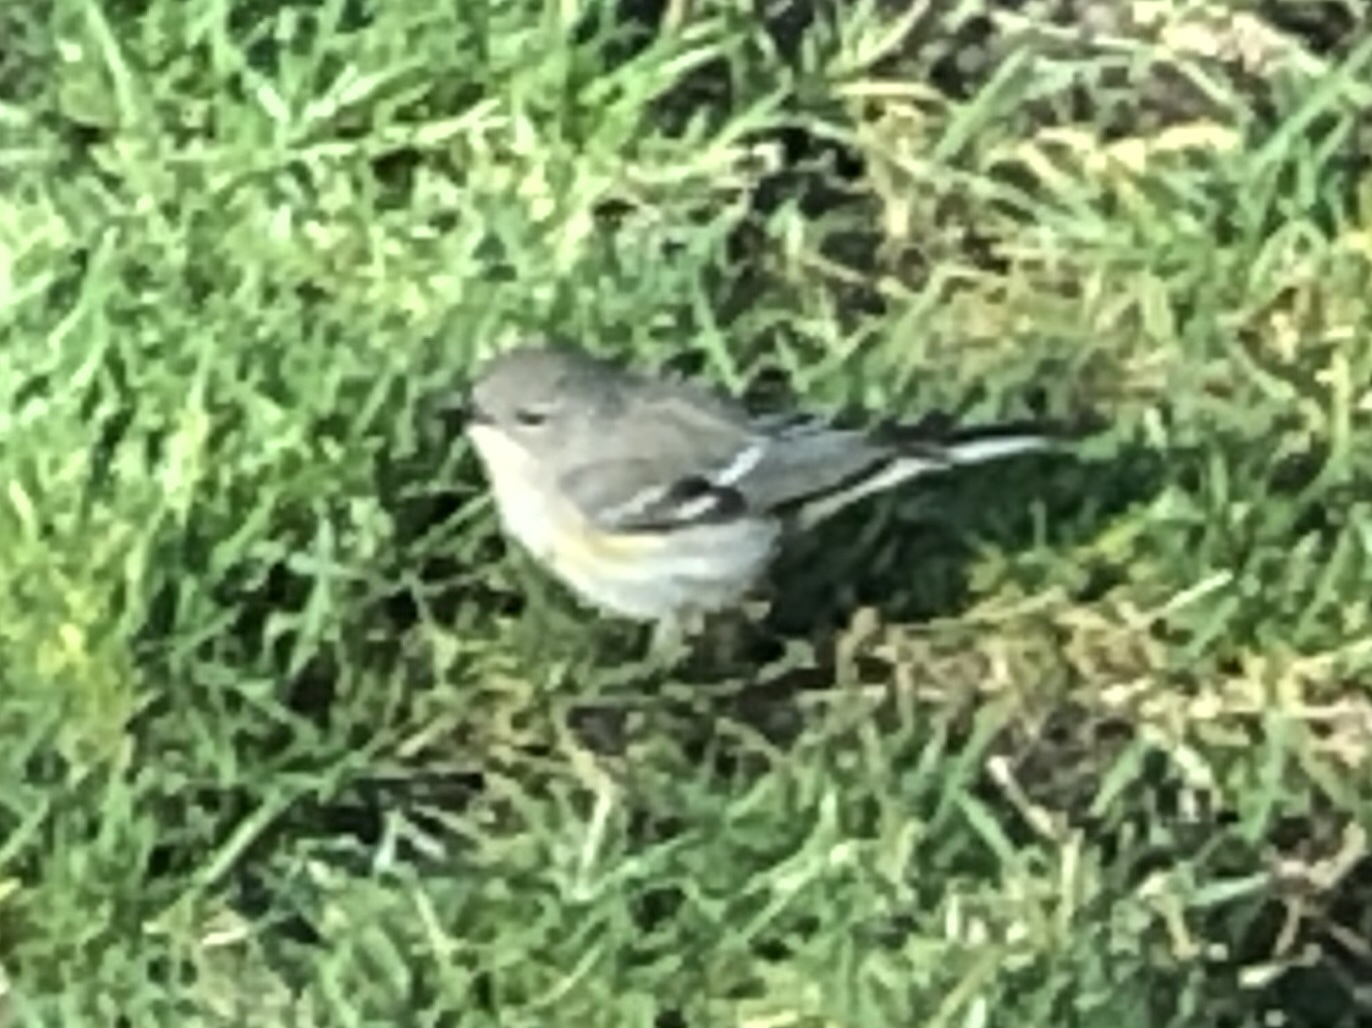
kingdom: Animalia
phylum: Chordata
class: Aves
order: Passeriformes
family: Parulidae
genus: Setophaga
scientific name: Setophaga coronata
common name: Myrtle warbler
